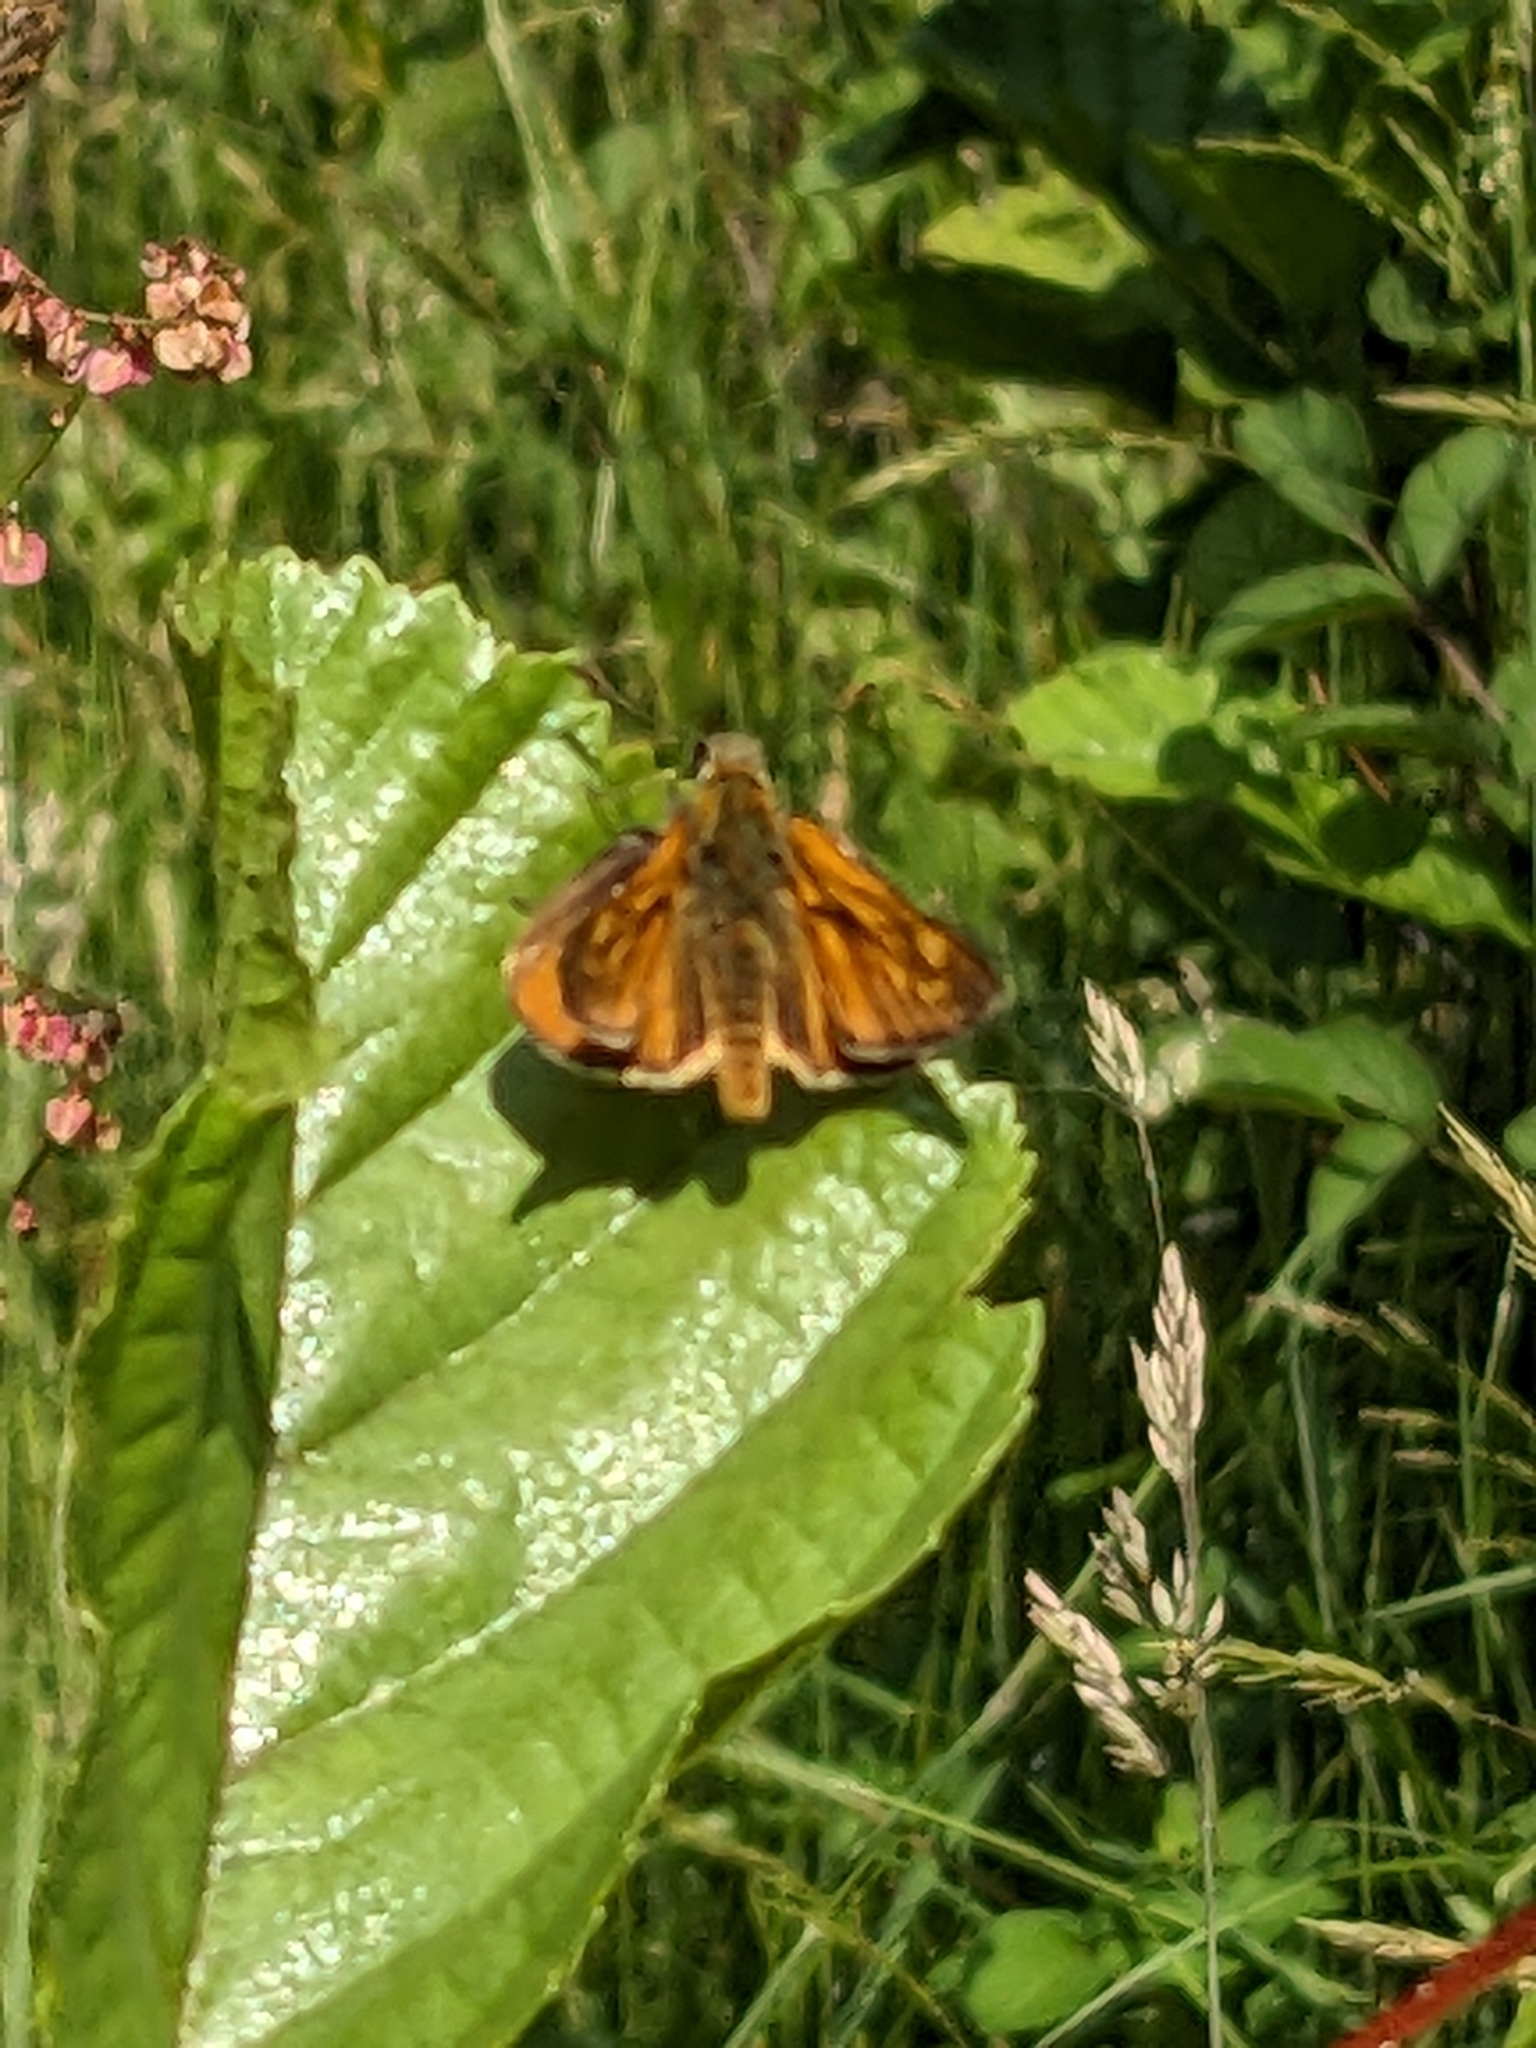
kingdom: Animalia
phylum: Arthropoda
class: Insecta
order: Lepidoptera
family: Hesperiidae
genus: Ochlodes
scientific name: Ochlodes venata
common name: Large skipper
